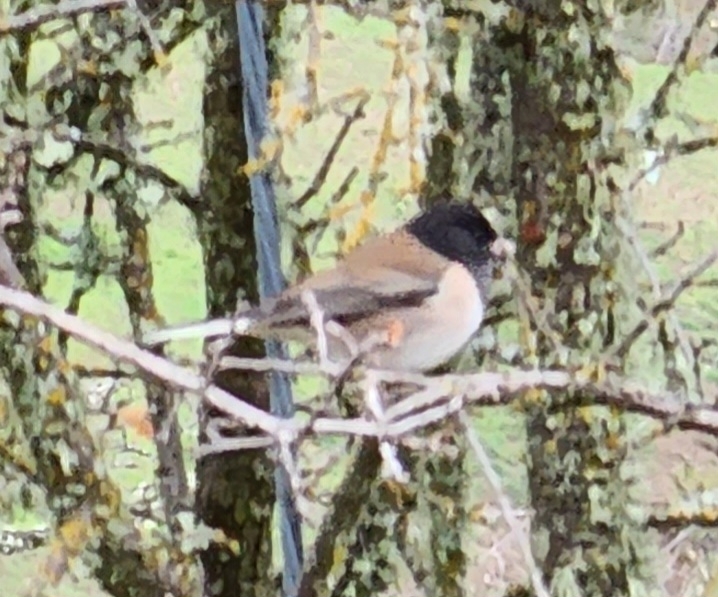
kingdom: Animalia
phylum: Chordata
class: Aves
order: Passeriformes
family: Passerellidae
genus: Junco
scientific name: Junco hyemalis
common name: Dark-eyed junco
